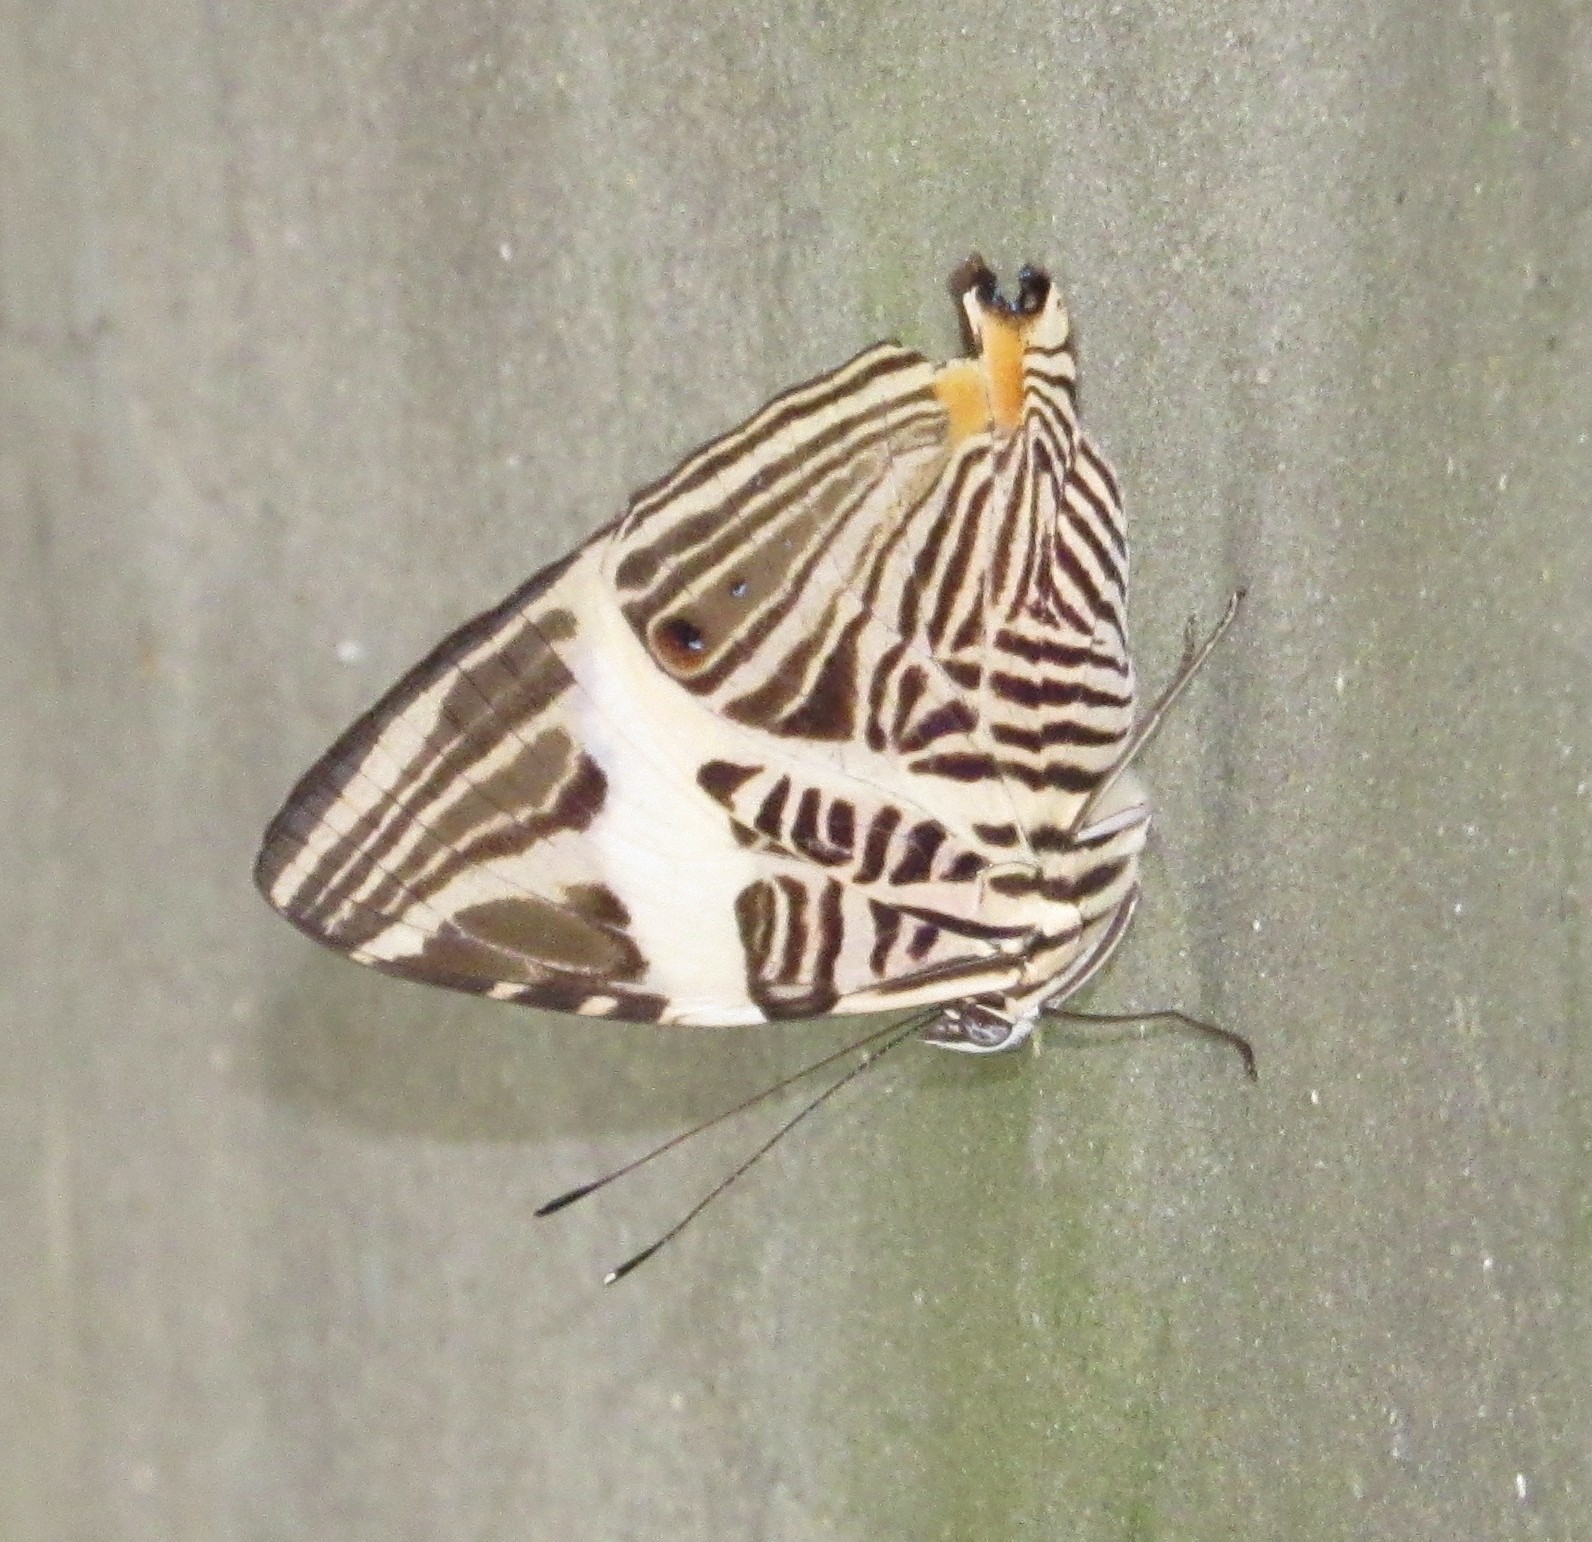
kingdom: Animalia
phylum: Arthropoda
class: Insecta
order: Lepidoptera
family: Nymphalidae
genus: Colobura
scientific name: Colobura dirce
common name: Dirce beauty
